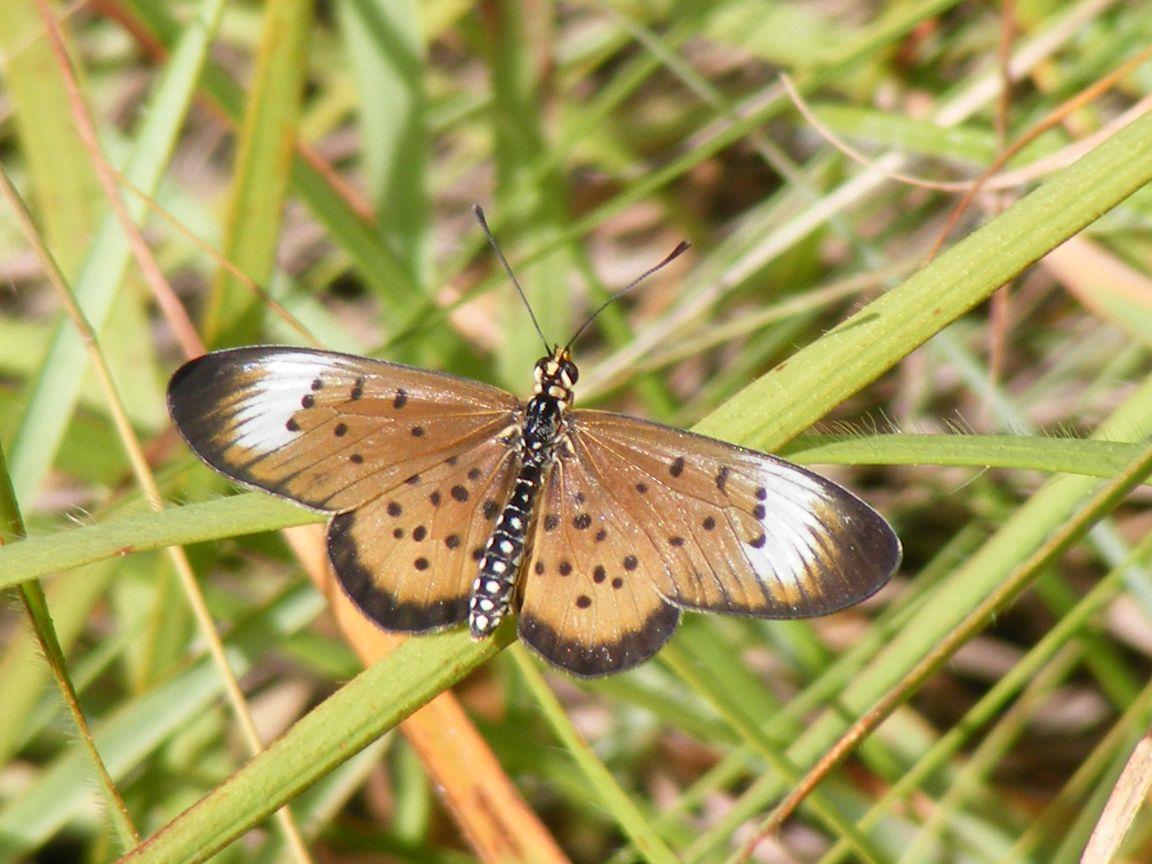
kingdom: Animalia
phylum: Arthropoda
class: Insecta
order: Lepidoptera
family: Nymphalidae
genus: Stephenia
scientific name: Stephenia
